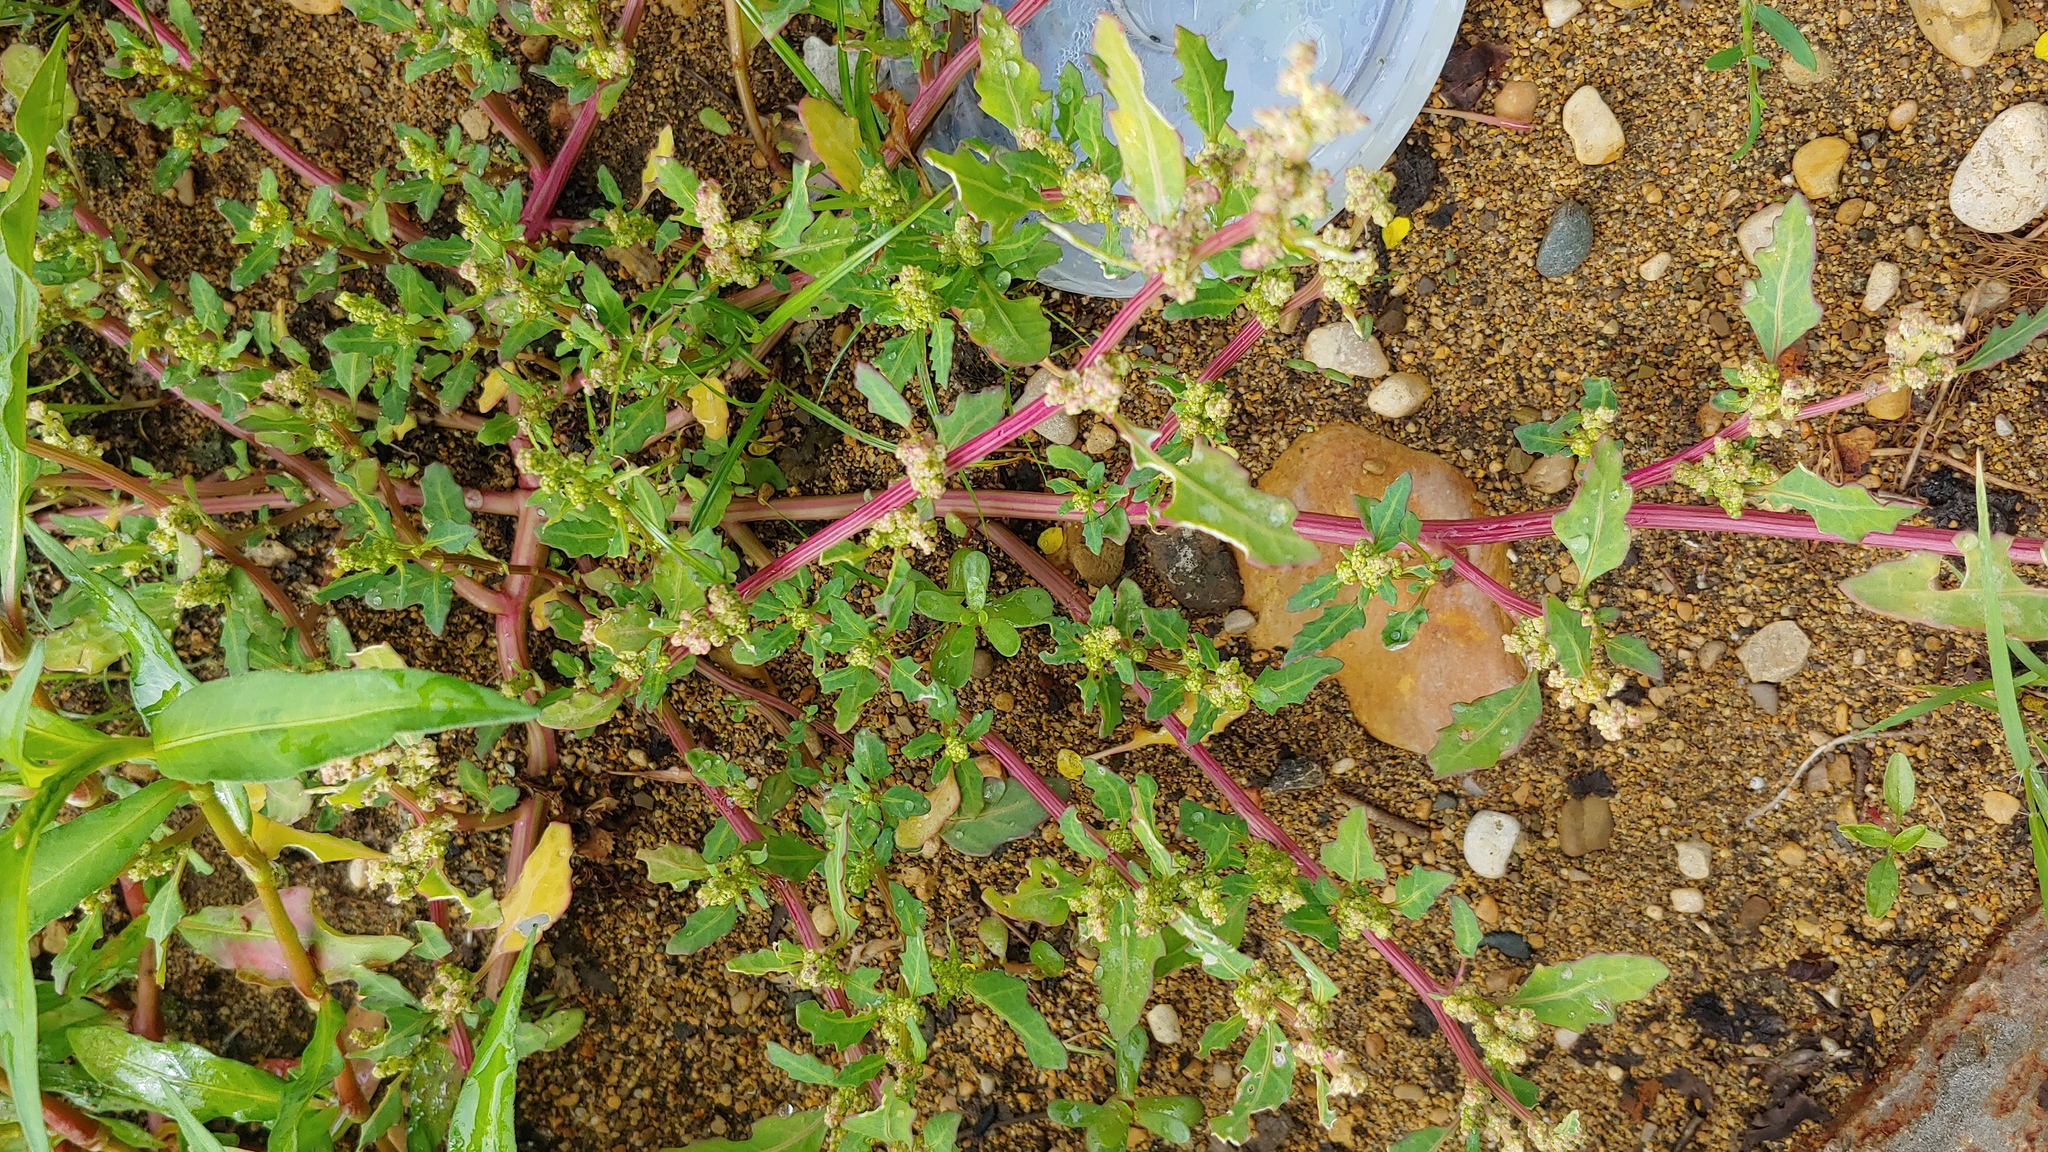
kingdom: Plantae
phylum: Tracheophyta
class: Magnoliopsida
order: Caryophyllales
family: Amaranthaceae
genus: Oxybasis
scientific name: Oxybasis glauca
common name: Glaucous goosefoot
